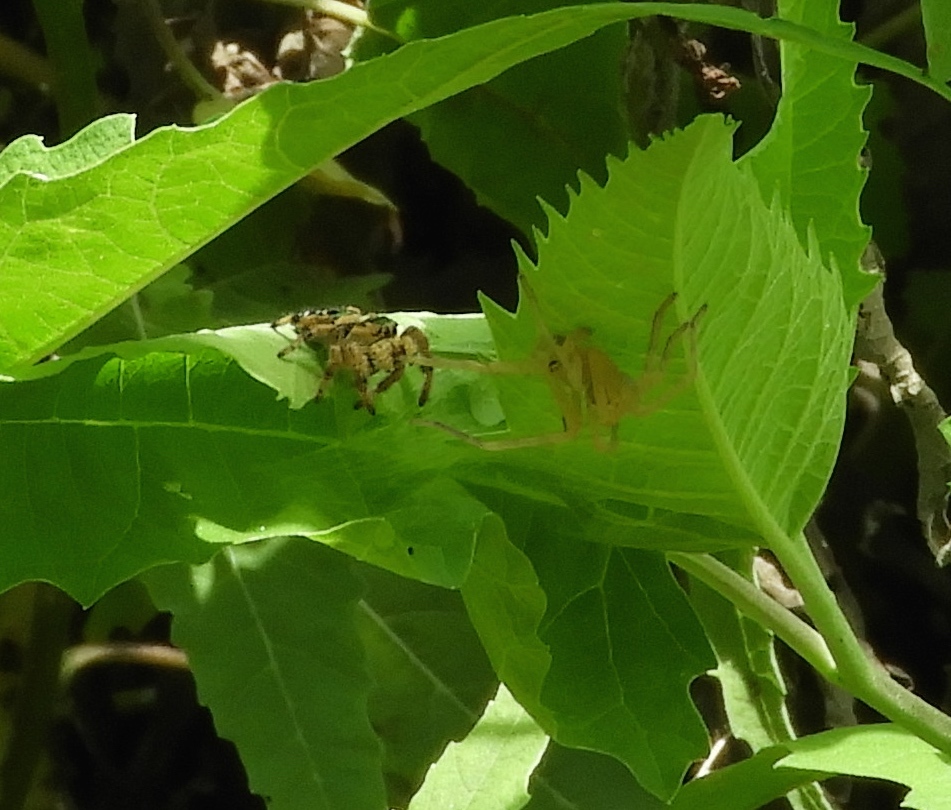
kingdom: Animalia
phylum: Arthropoda
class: Arachnida
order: Araneae
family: Sparassidae
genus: Curicaberis
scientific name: Curicaberis culiacan
